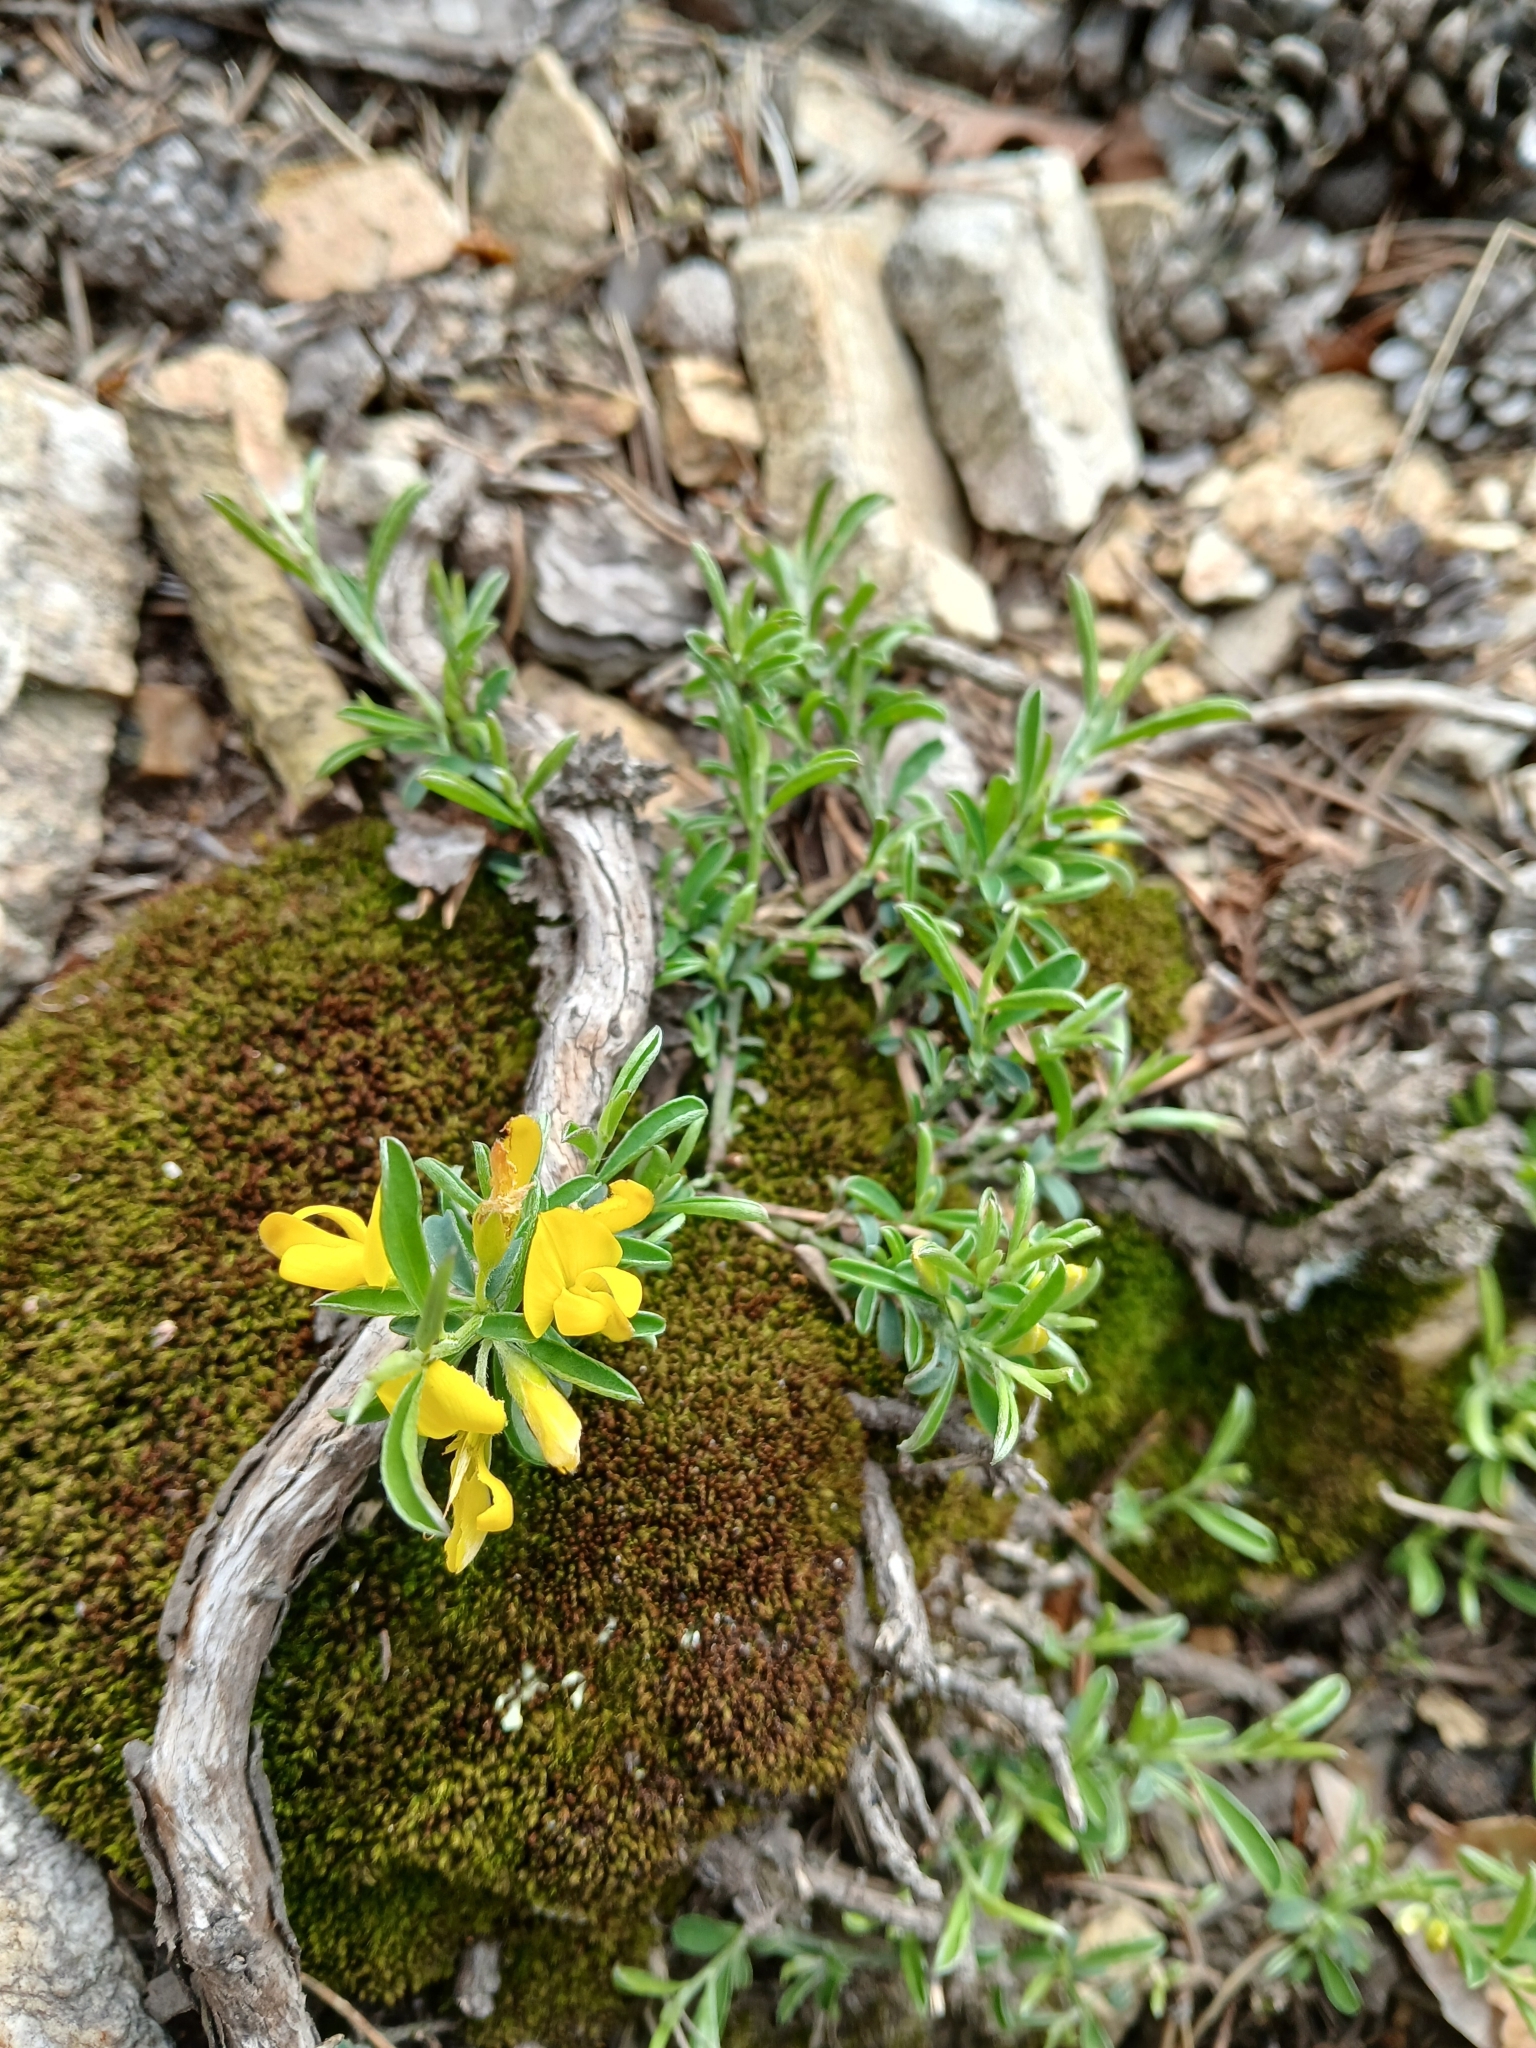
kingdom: Plantae
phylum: Tracheophyta
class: Magnoliopsida
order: Fabales
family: Fabaceae
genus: Genista
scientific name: Genista pilosa
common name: Hairy greenweed
